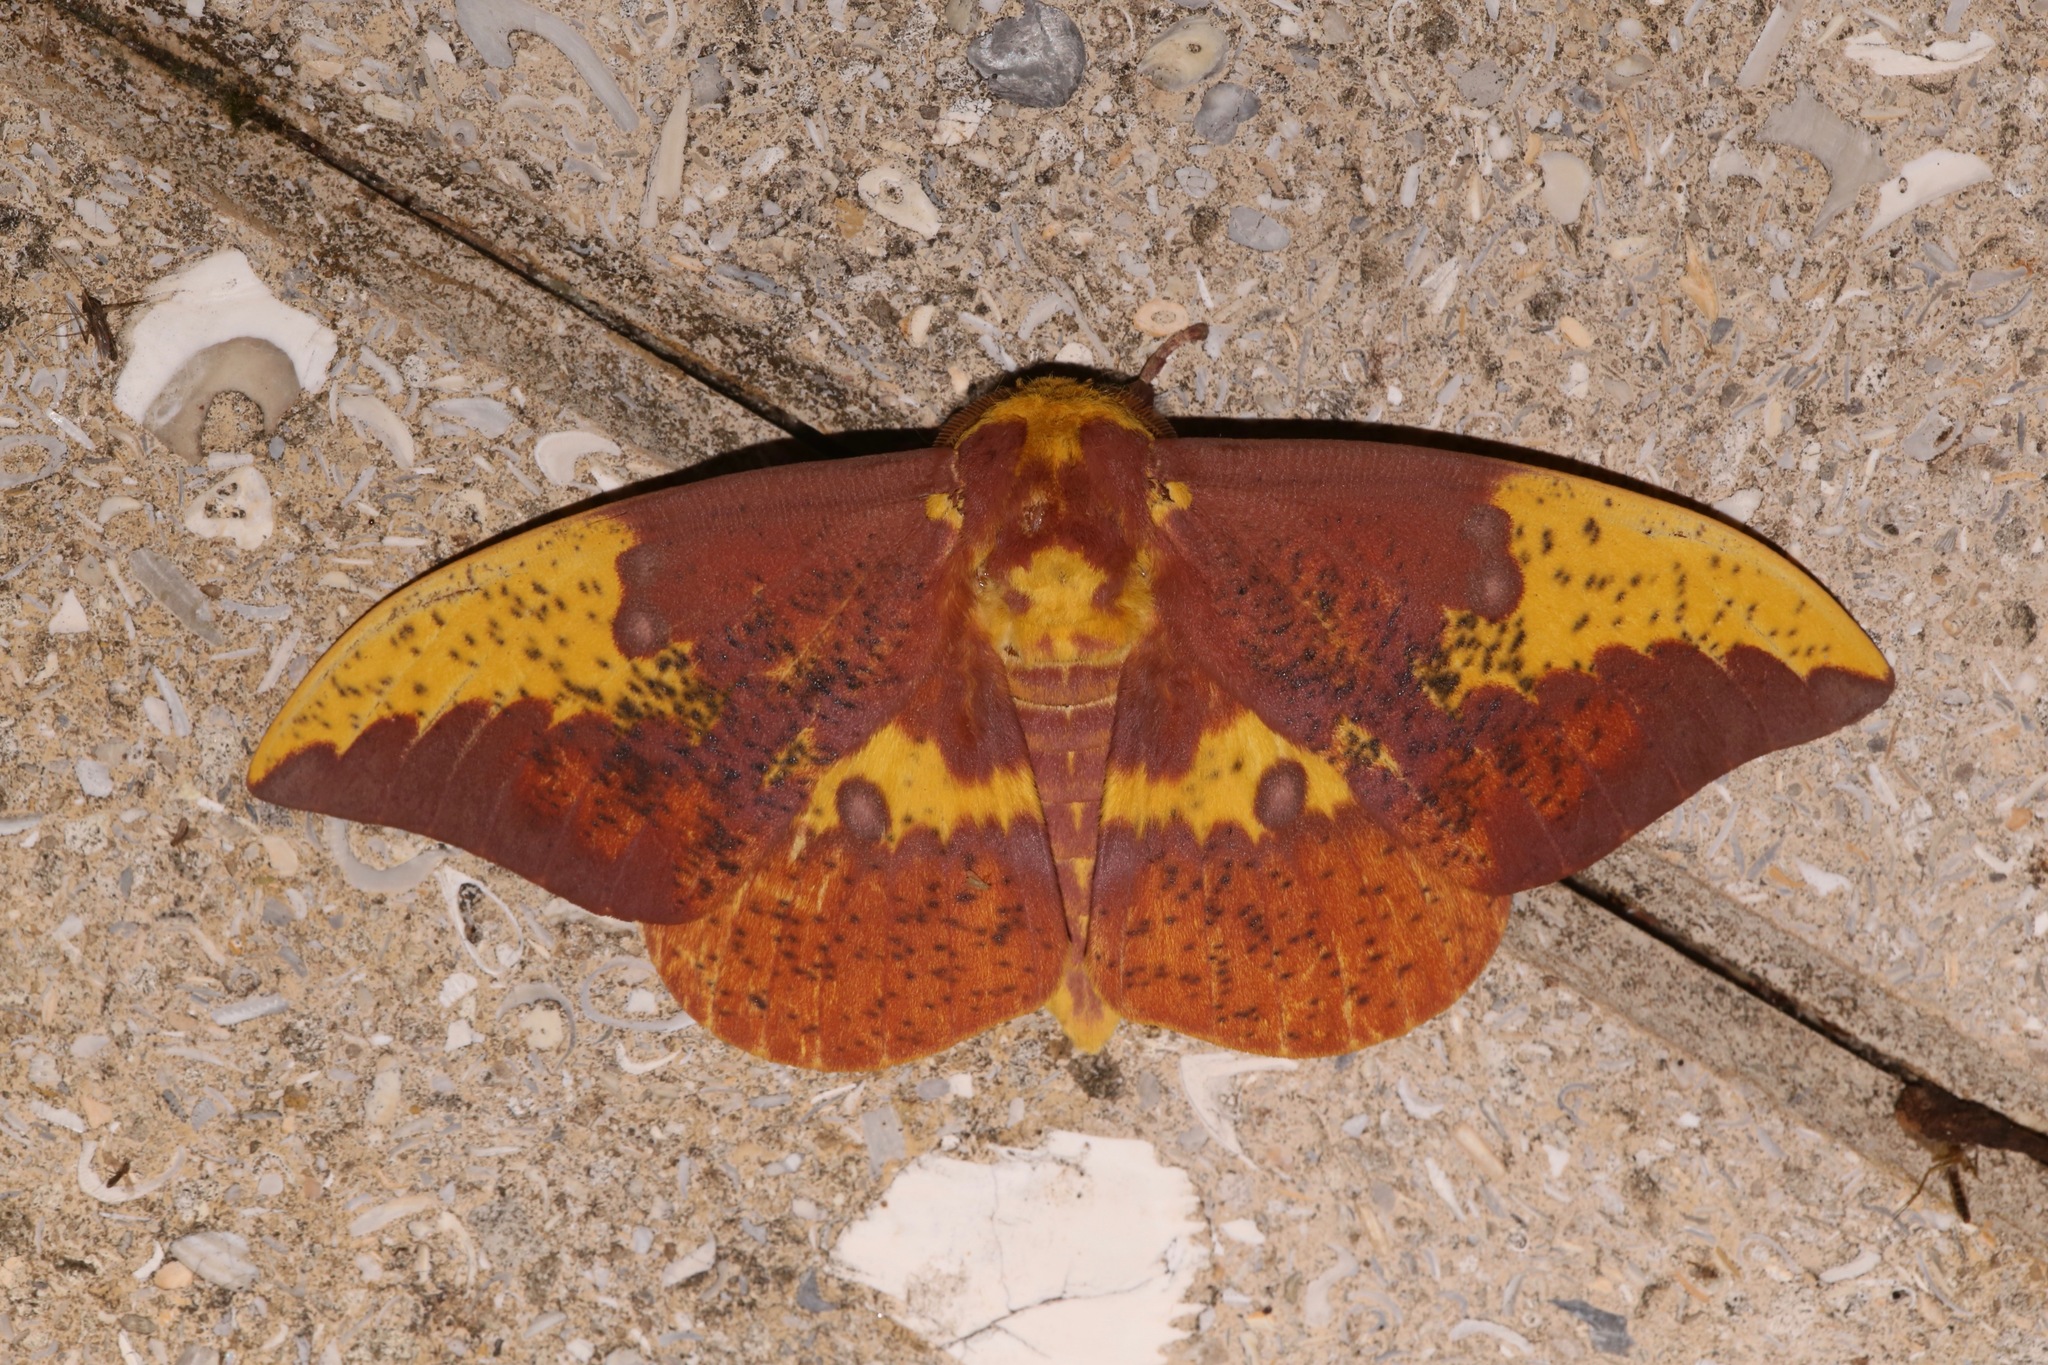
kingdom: Animalia
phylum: Arthropoda
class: Insecta
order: Lepidoptera
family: Saturniidae
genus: Eacles
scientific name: Eacles imperialis
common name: Imperial moth
